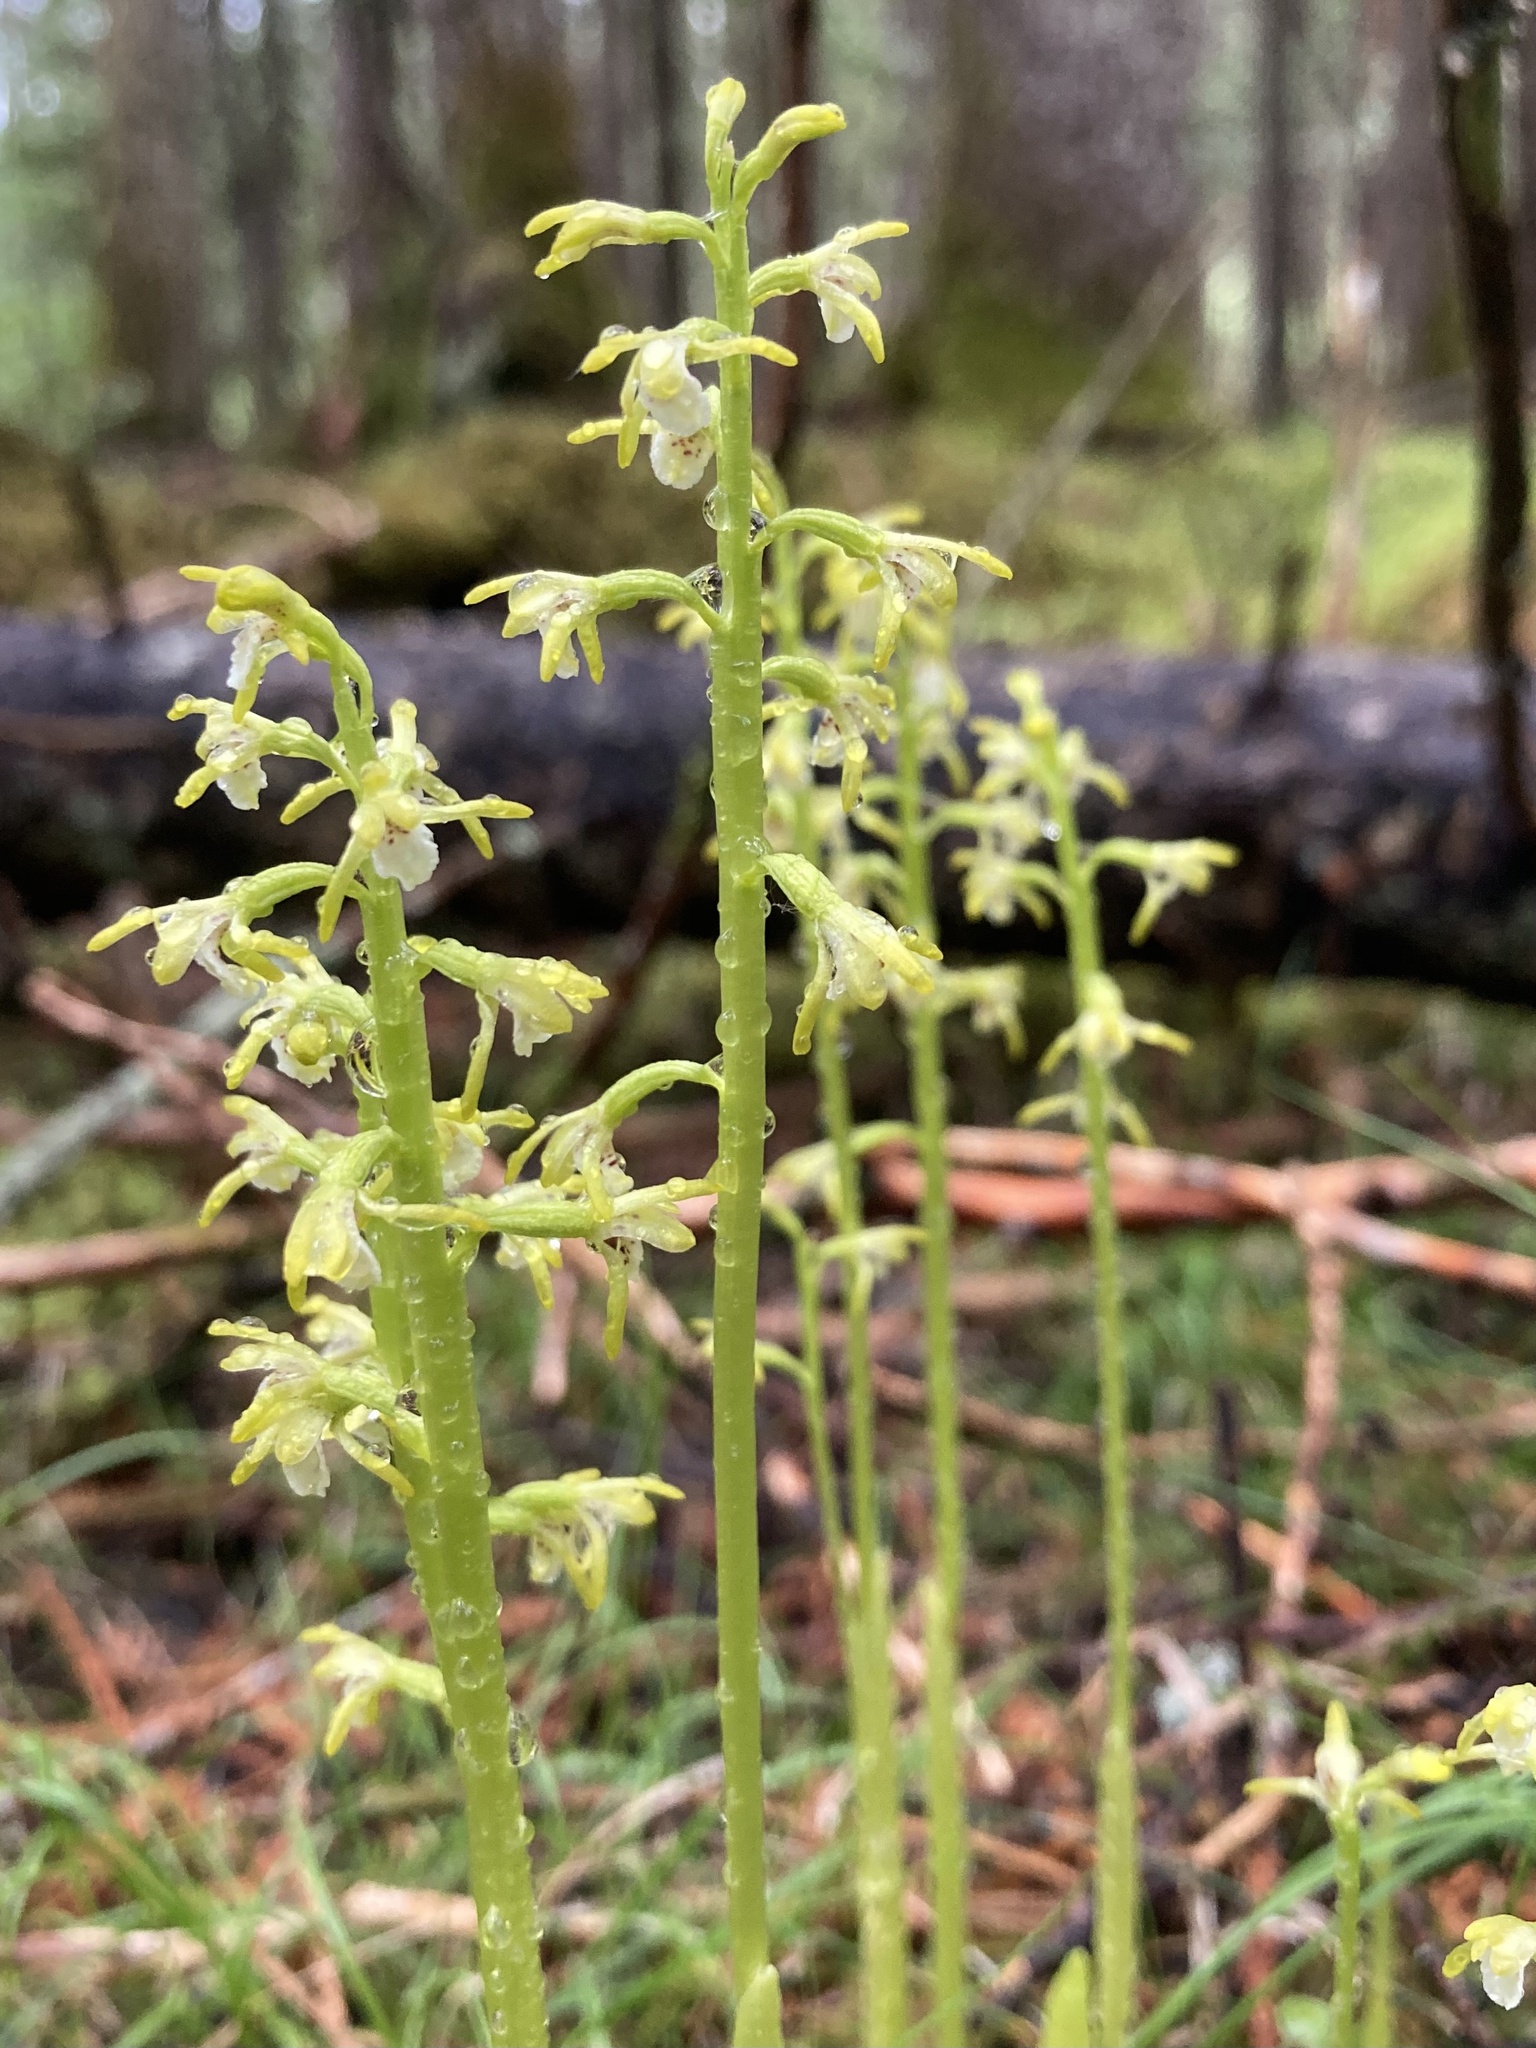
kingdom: Plantae
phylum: Tracheophyta
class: Liliopsida
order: Asparagales
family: Orchidaceae
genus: Corallorhiza
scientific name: Corallorhiza trifida
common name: Yellow coralroot
